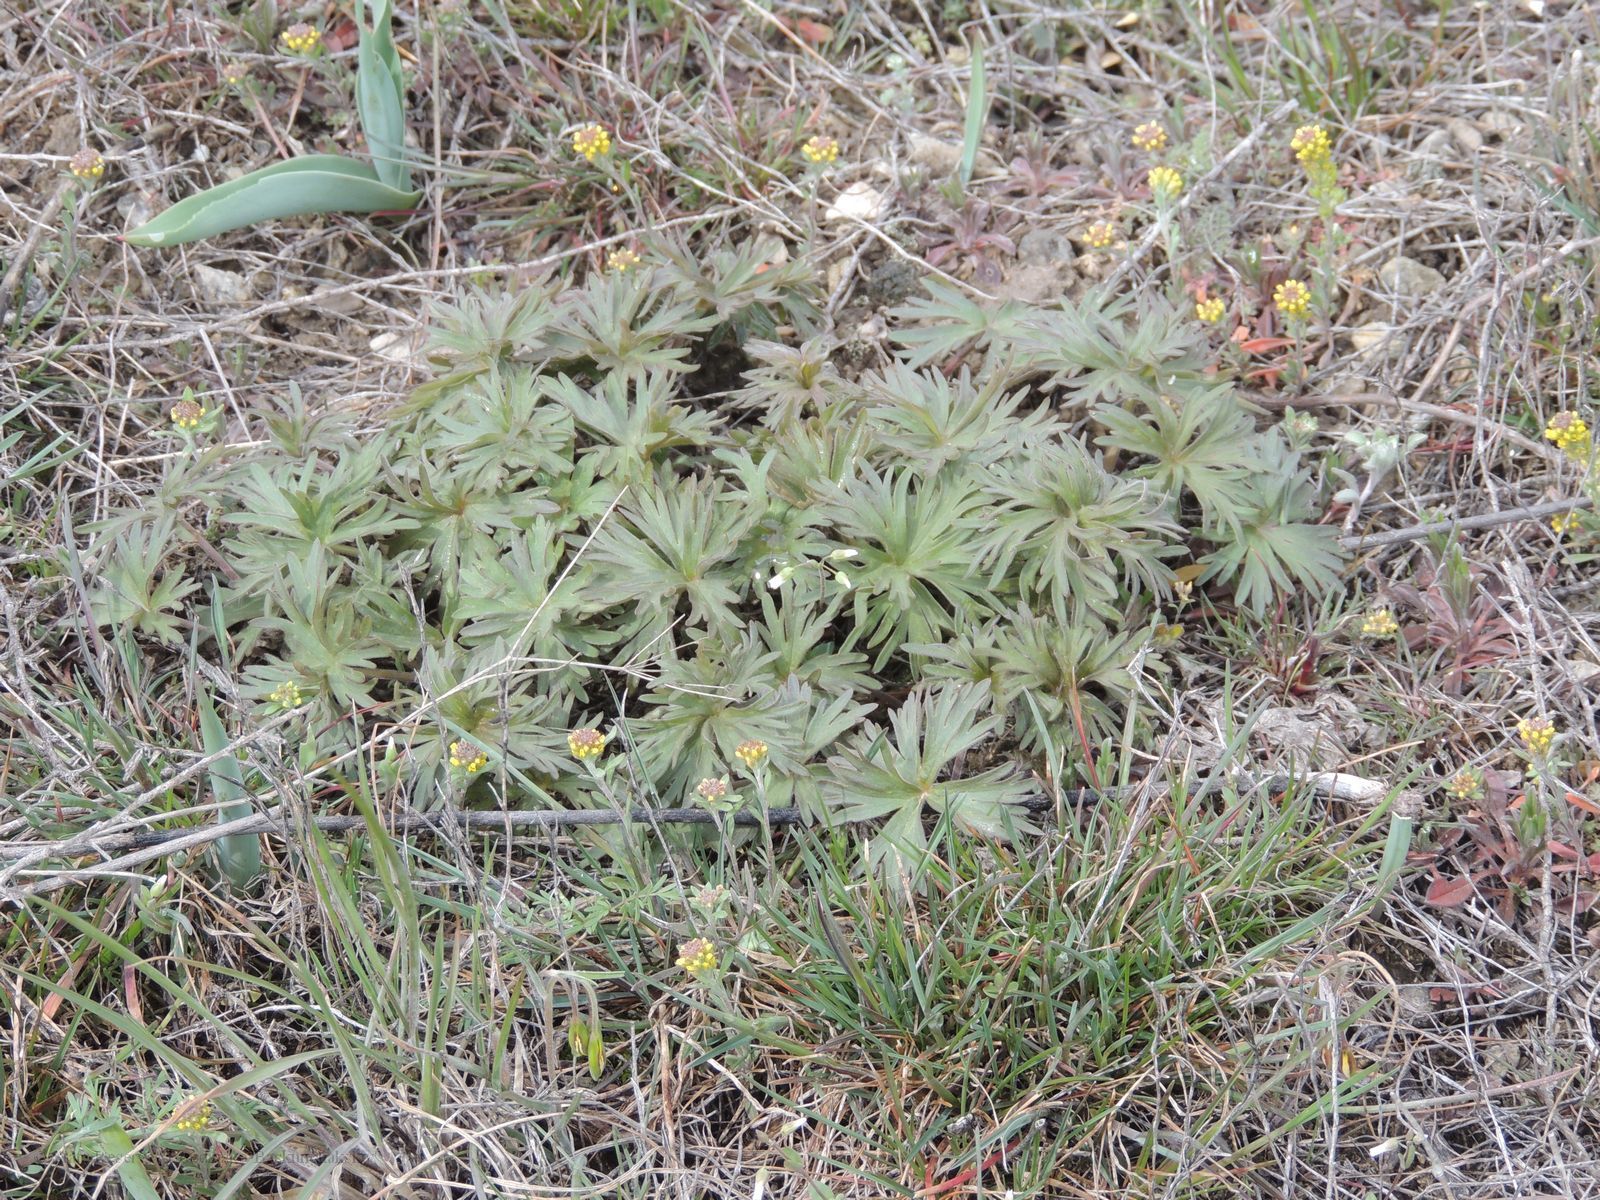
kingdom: Plantae
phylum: Tracheophyta
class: Magnoliopsida
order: Ranunculales
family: Ranunculaceae
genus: Delphinium
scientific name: Delphinium puniceum
